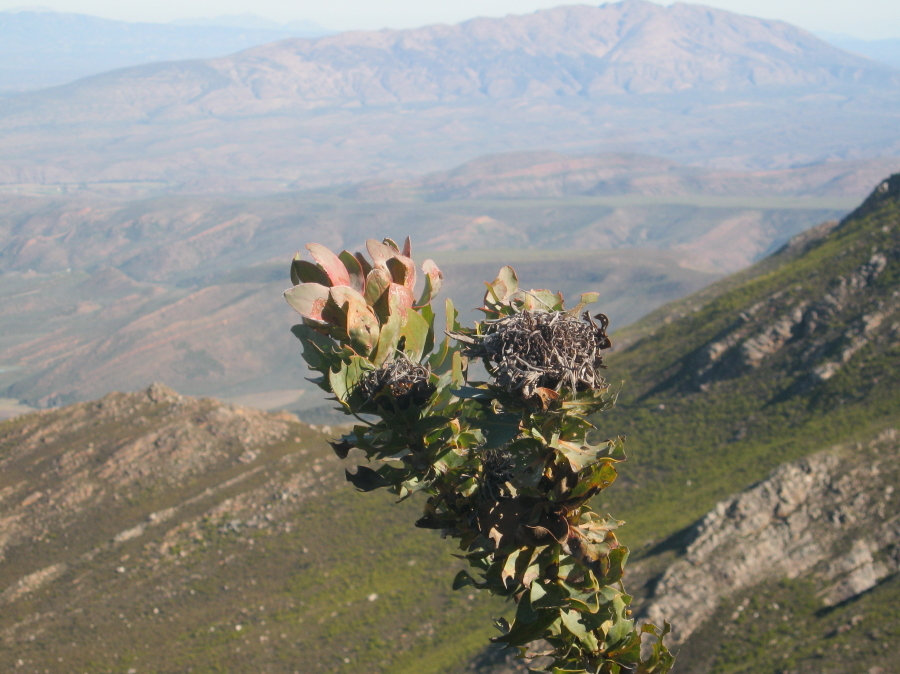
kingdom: Plantae
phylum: Tracheophyta
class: Magnoliopsida
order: Proteales
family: Proteaceae
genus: Protea
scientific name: Protea eximia
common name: Broad-leaved sugarbush
